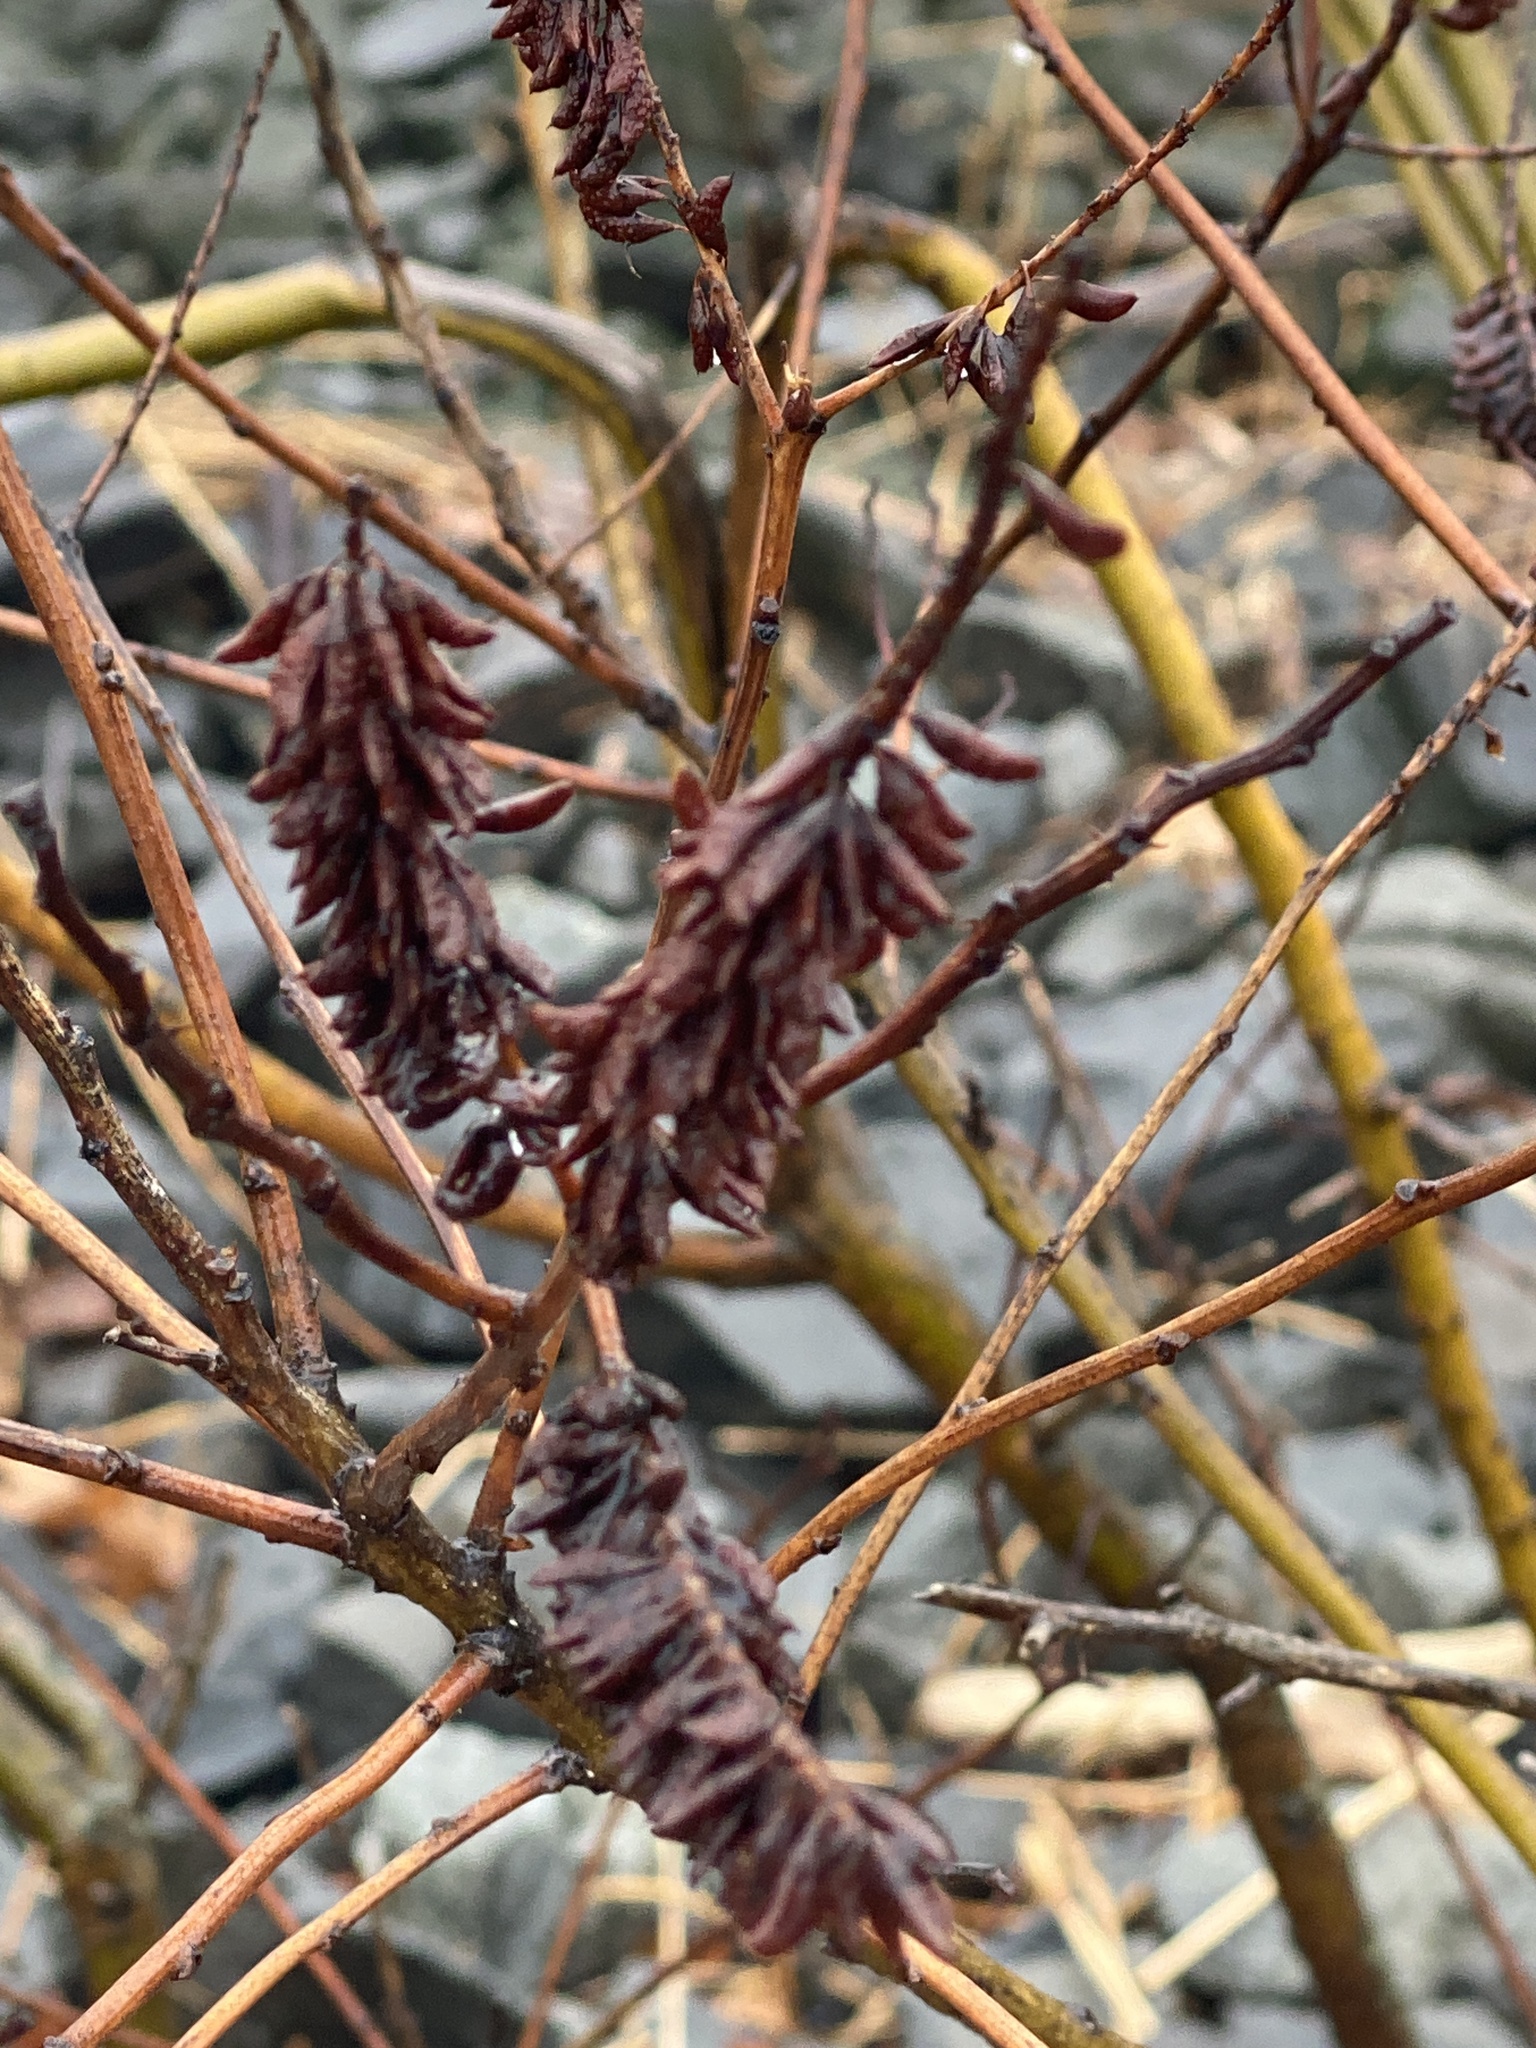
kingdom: Plantae
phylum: Tracheophyta
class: Magnoliopsida
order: Fabales
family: Fabaceae
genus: Amorpha
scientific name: Amorpha fruticosa
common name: False indigo
